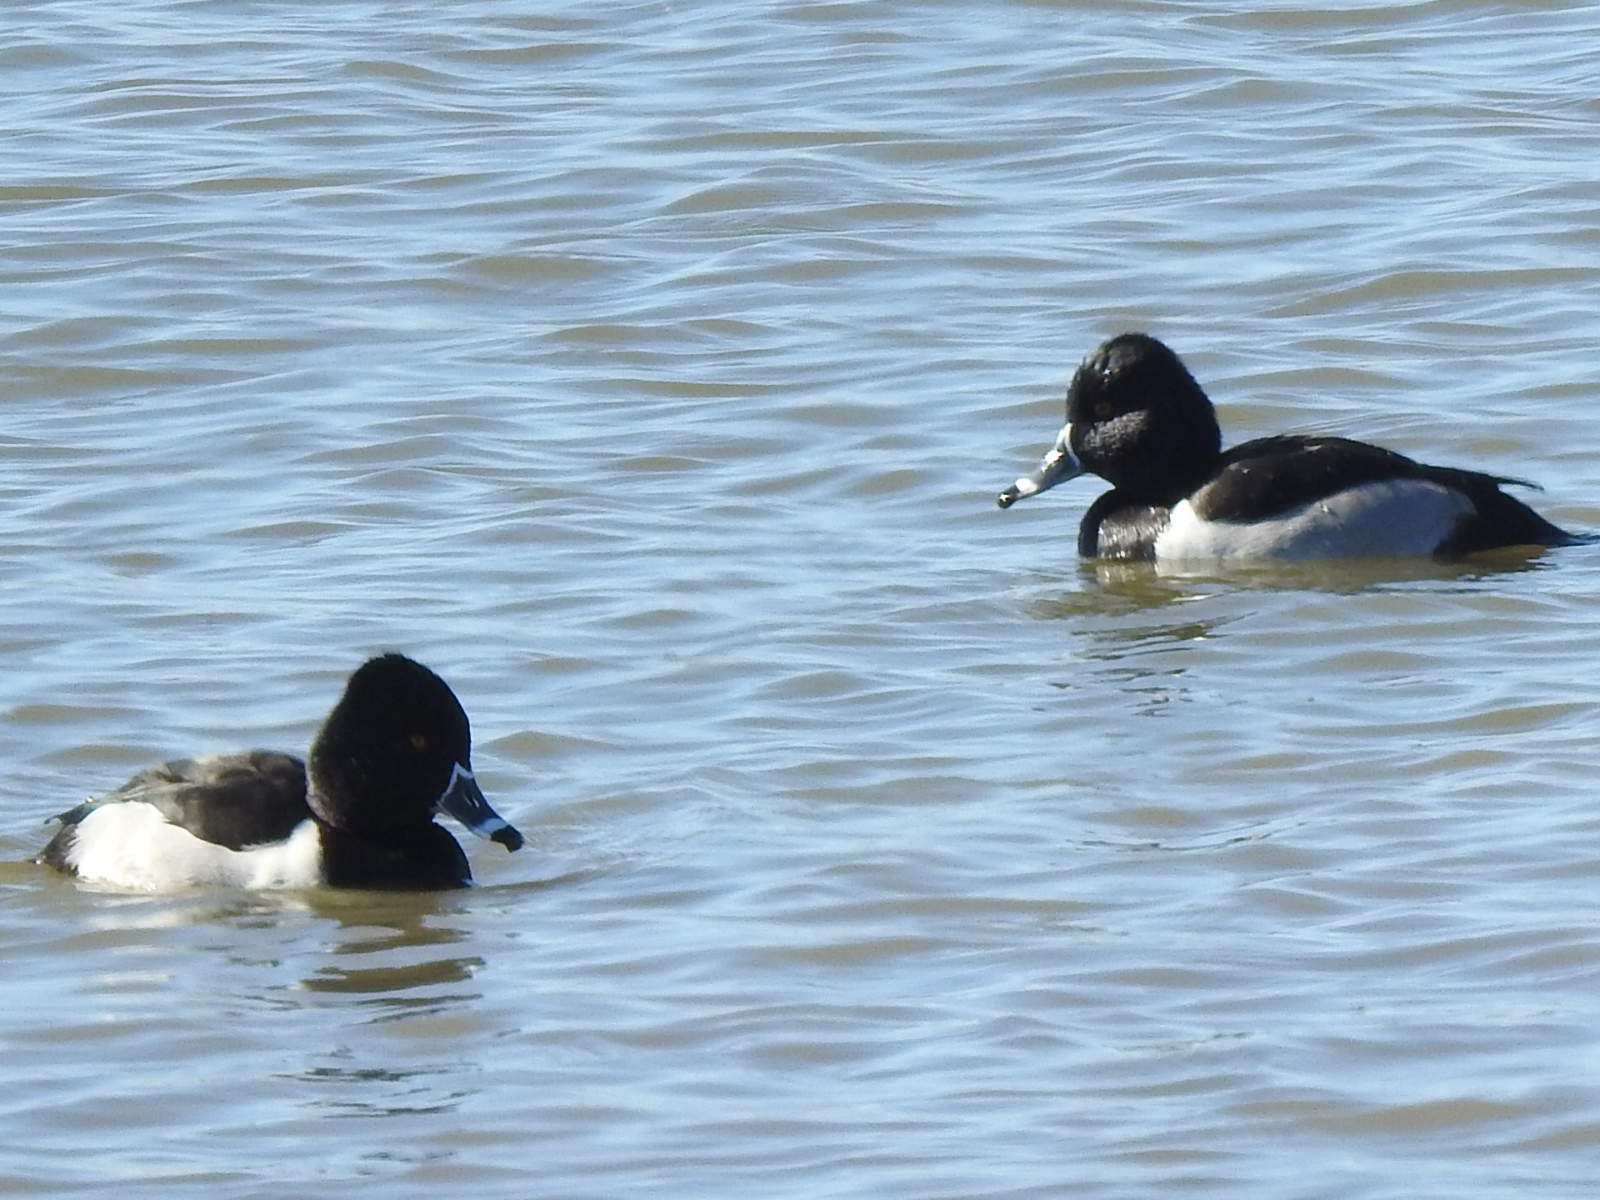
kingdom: Animalia
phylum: Chordata
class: Aves
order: Anseriformes
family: Anatidae
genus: Aythya
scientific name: Aythya collaris
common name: Ring-necked duck
